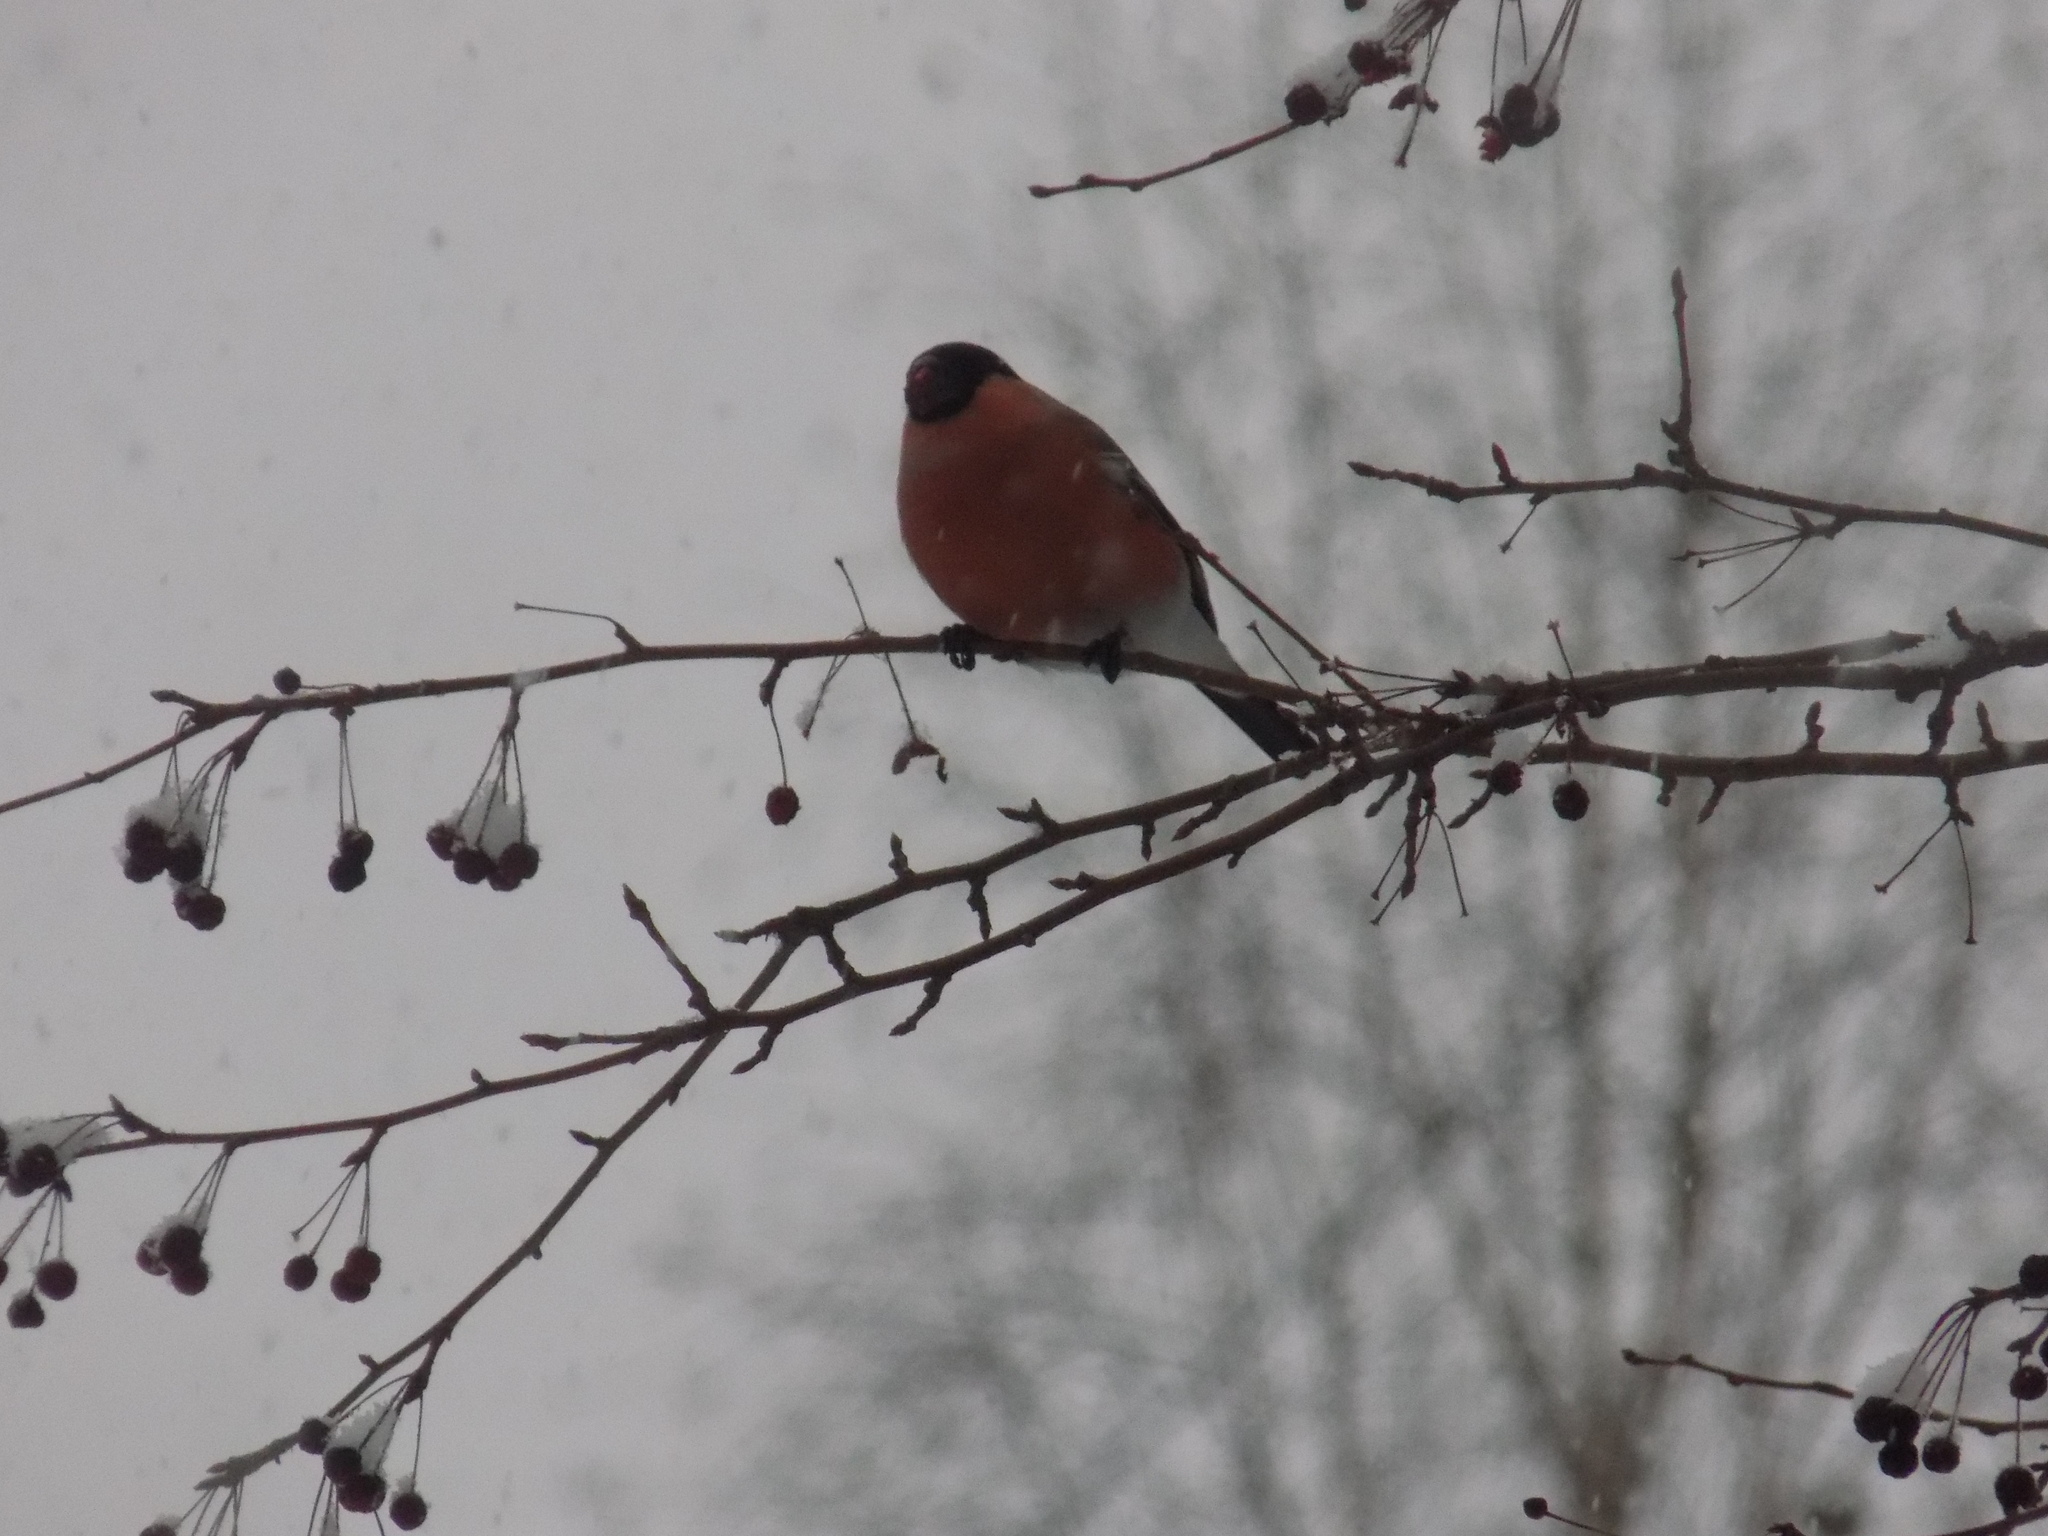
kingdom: Animalia
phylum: Chordata
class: Aves
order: Passeriformes
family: Fringillidae
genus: Pyrrhula
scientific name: Pyrrhula pyrrhula
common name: Eurasian bullfinch
